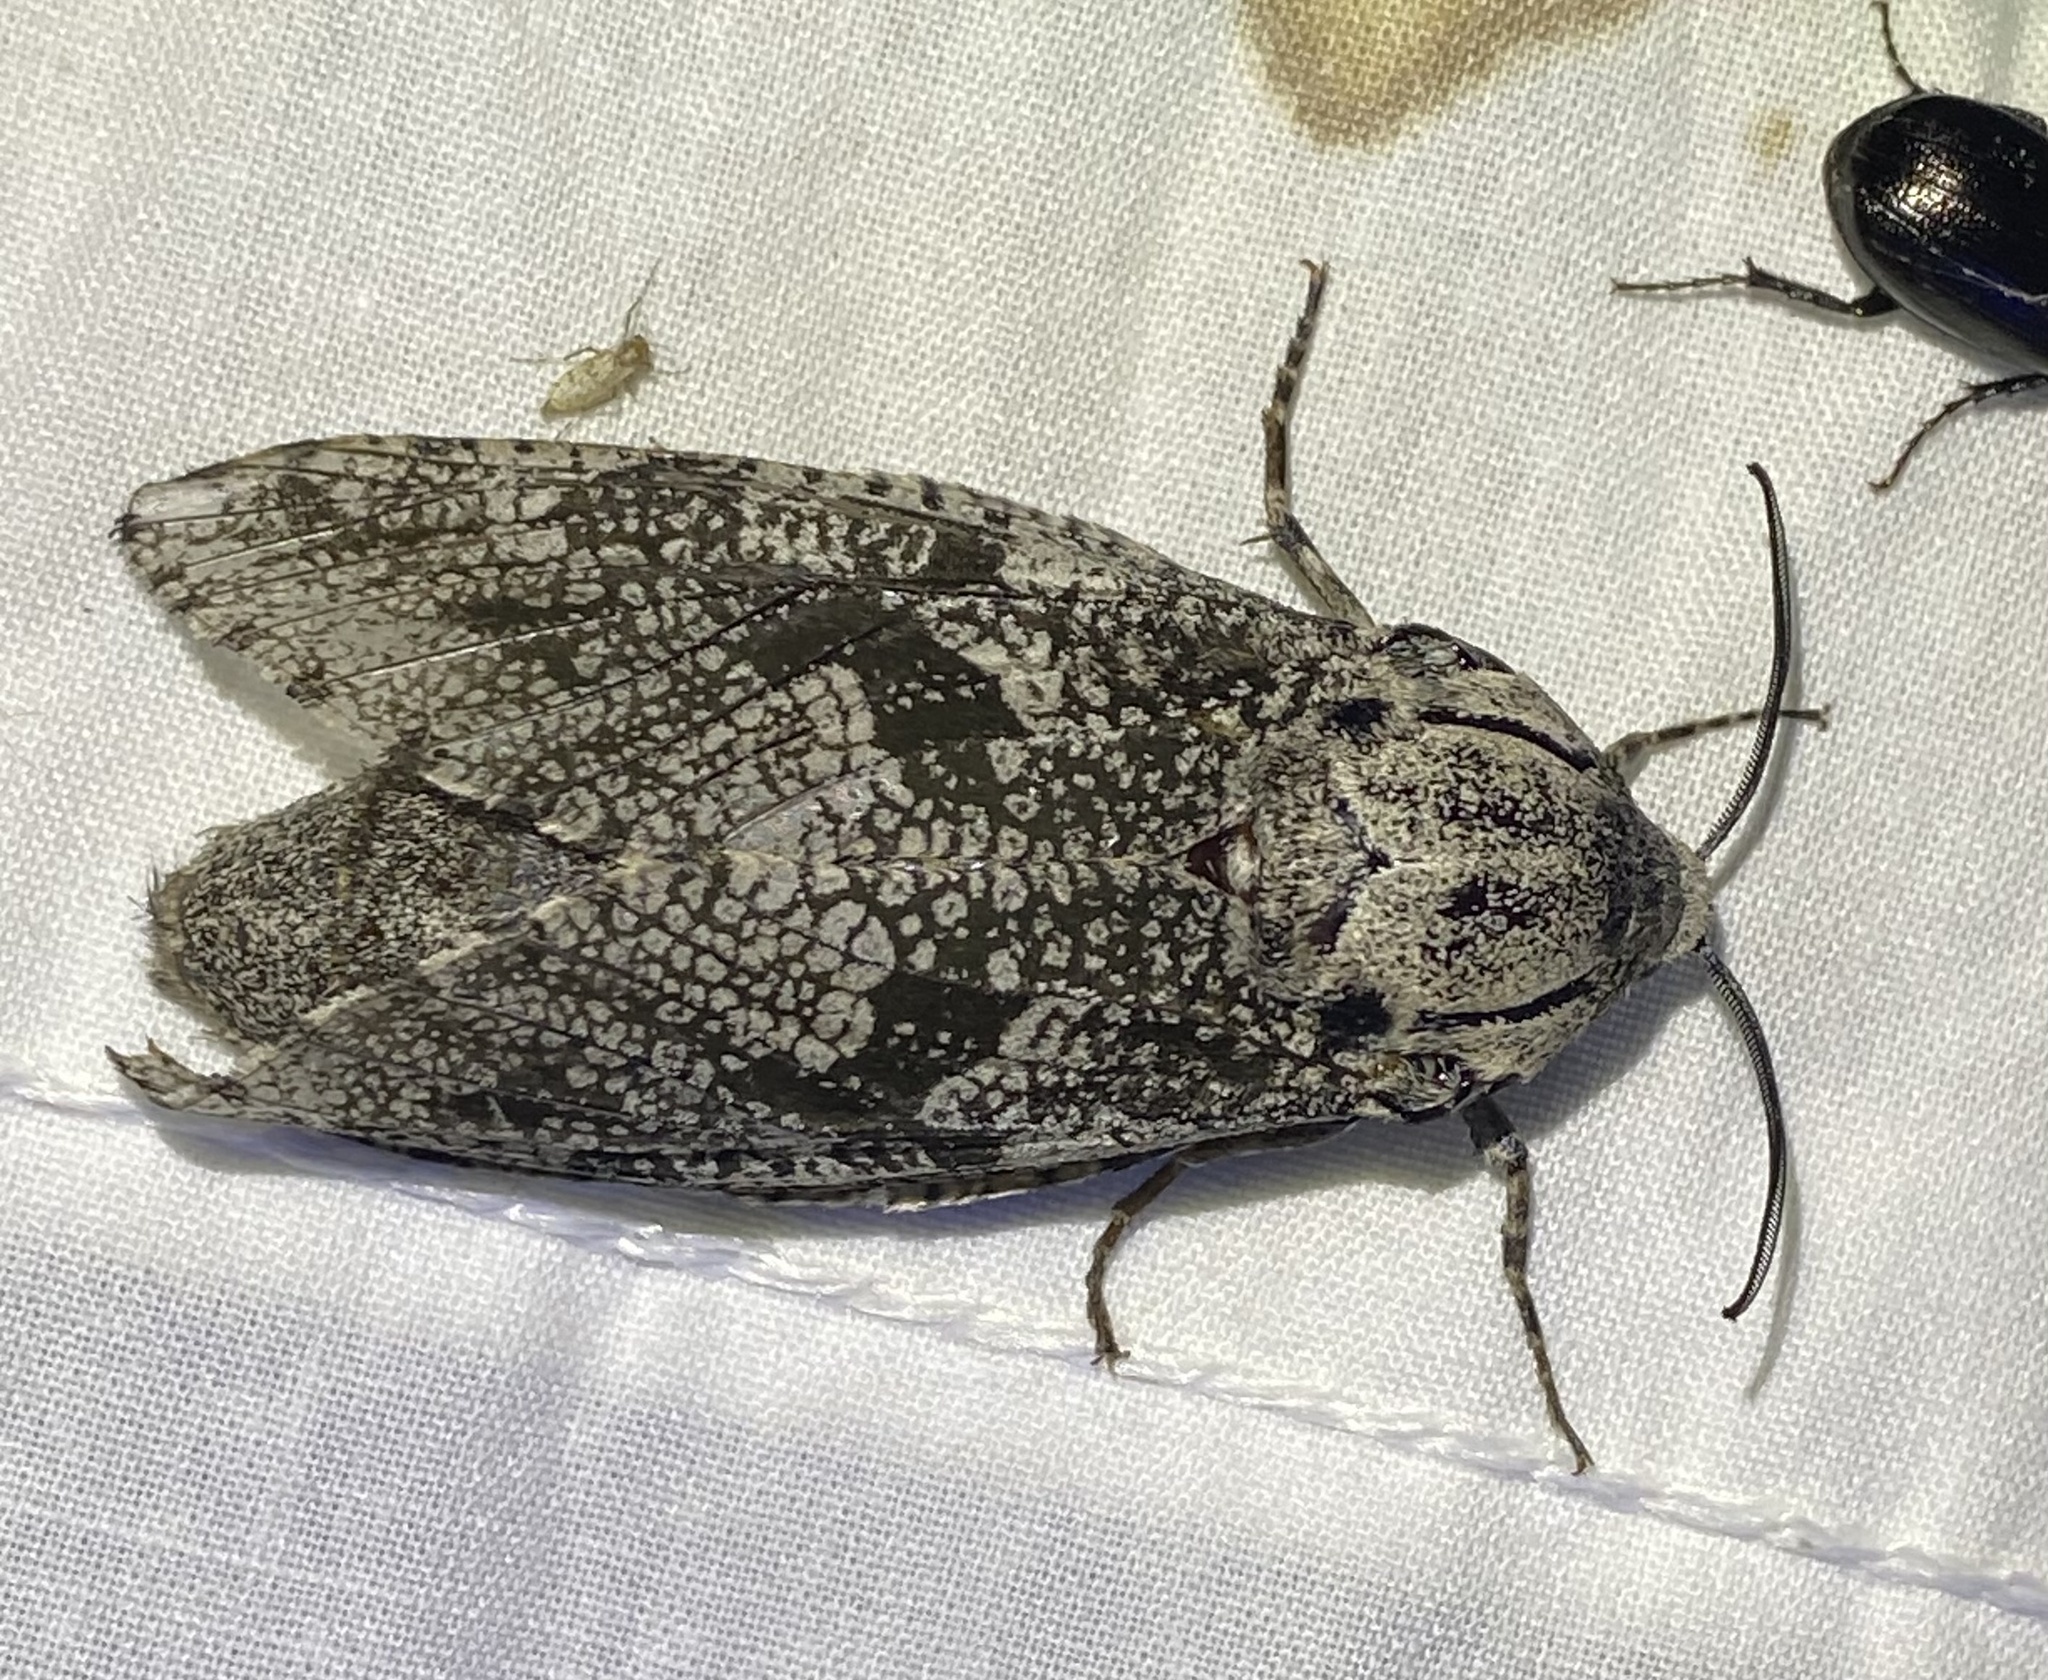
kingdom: Animalia
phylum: Arthropoda
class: Insecta
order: Lepidoptera
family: Cossidae
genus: Prionoxystus
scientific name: Prionoxystus robiniae
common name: Carpenterworm
